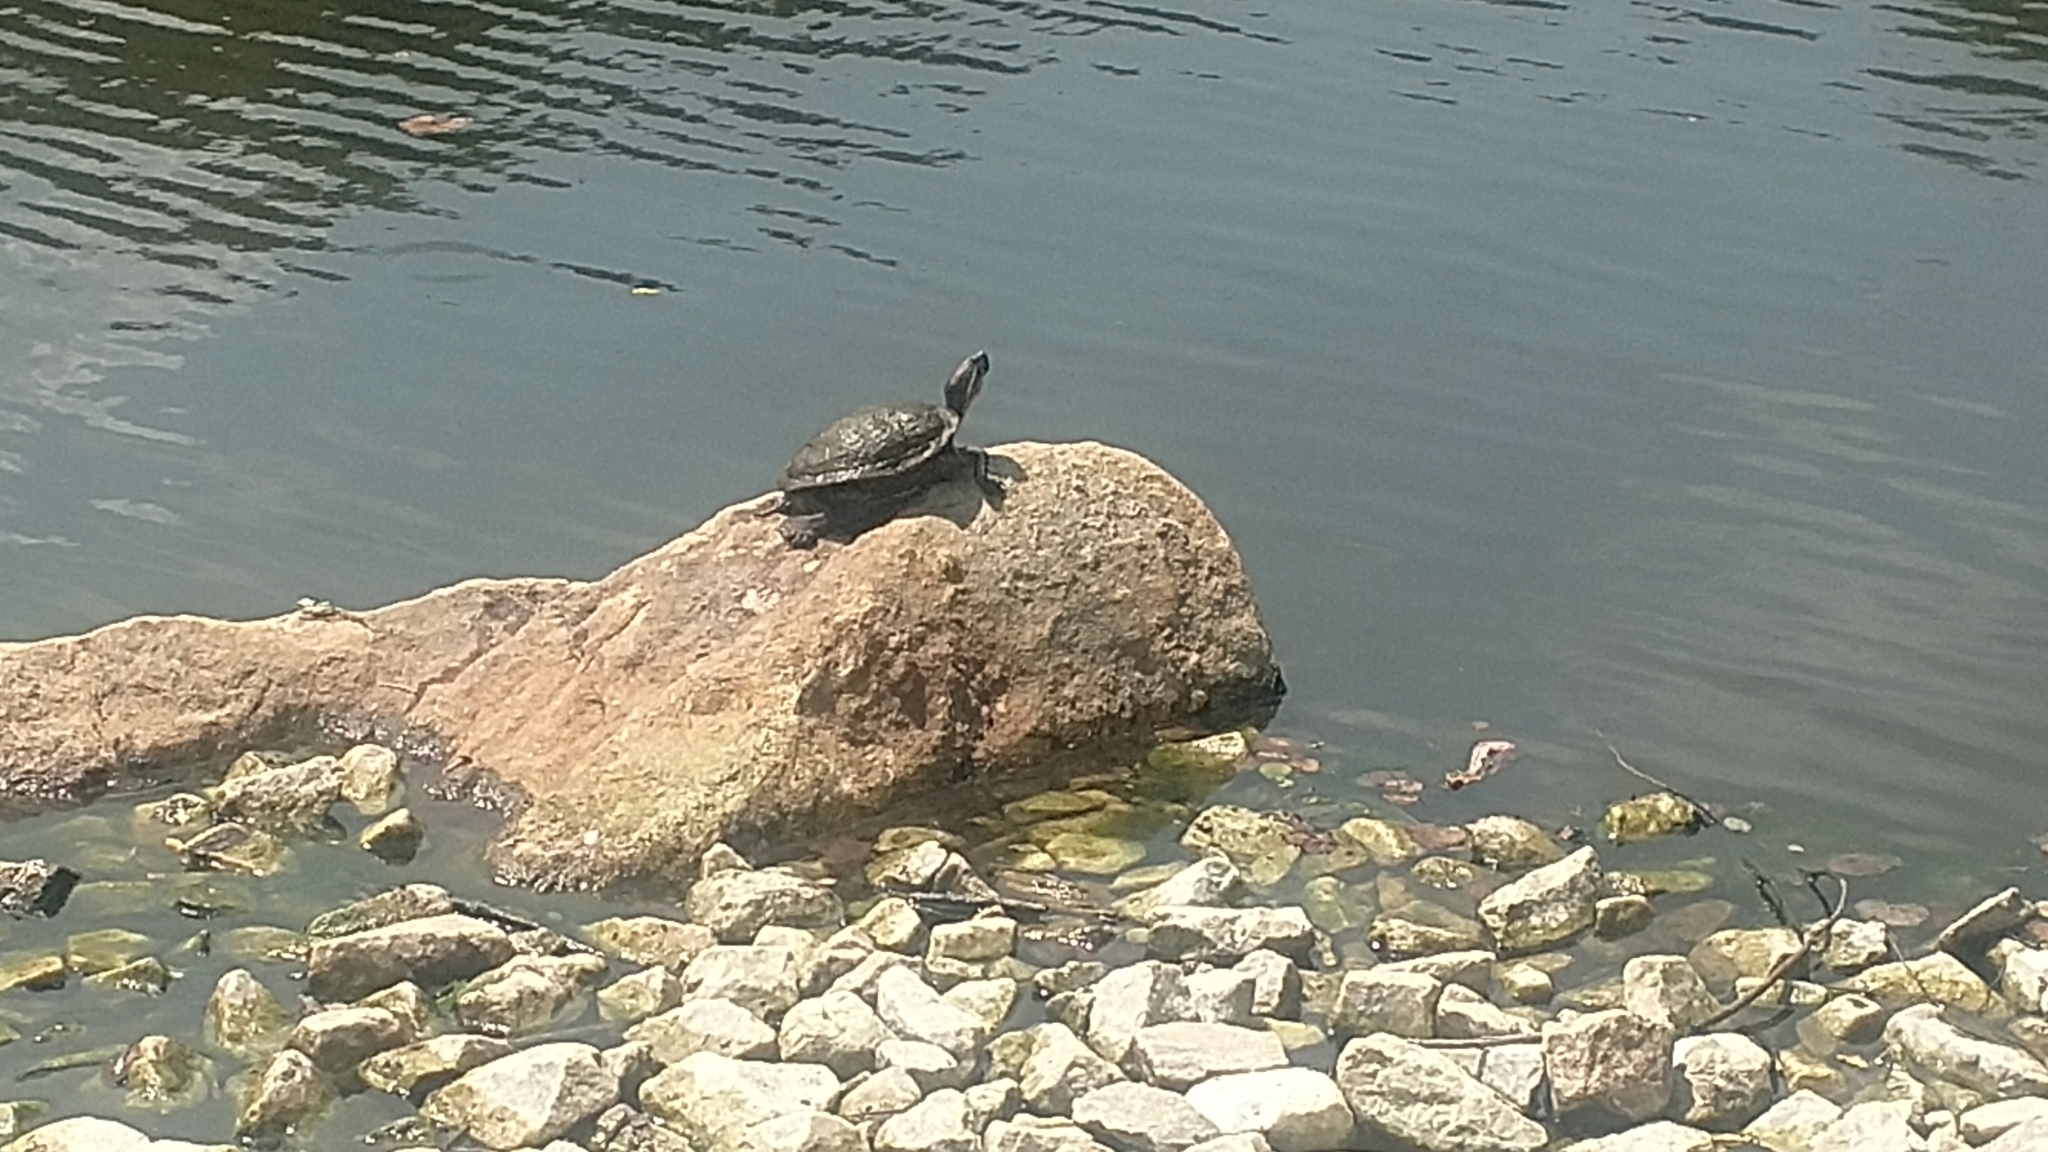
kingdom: Animalia
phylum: Chordata
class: Testudines
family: Emydidae
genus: Trachemys
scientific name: Trachemys scripta
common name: Slider
